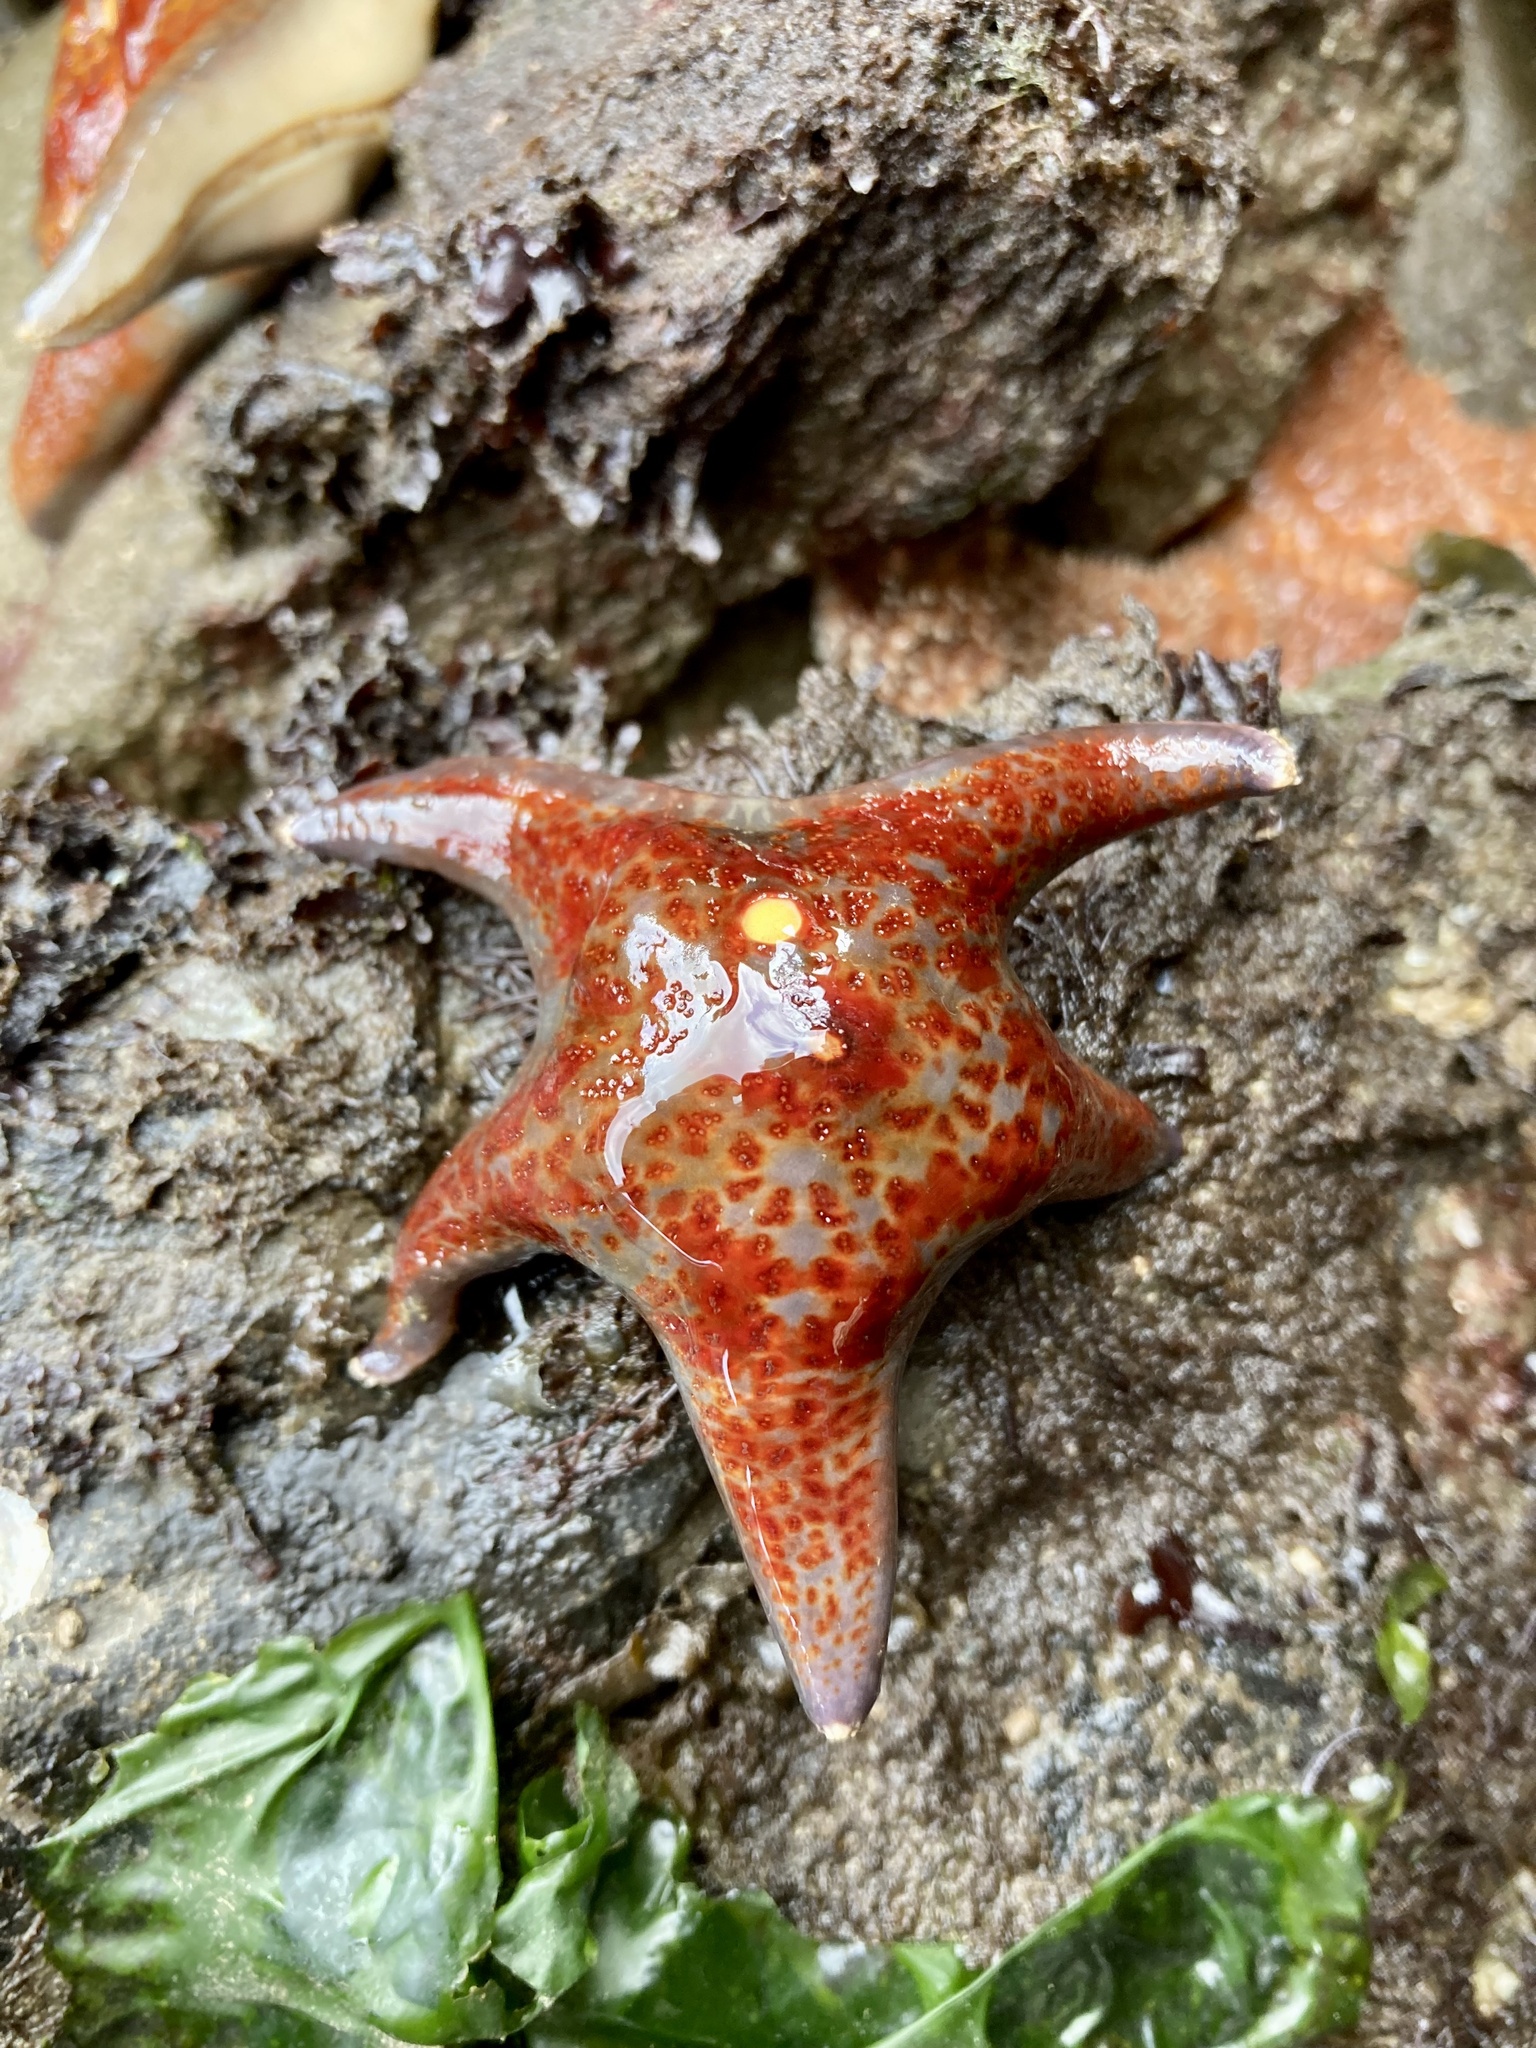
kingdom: Animalia
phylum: Echinodermata
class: Asteroidea
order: Valvatida
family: Asteropseidae
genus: Dermasterias
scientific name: Dermasterias imbricata
